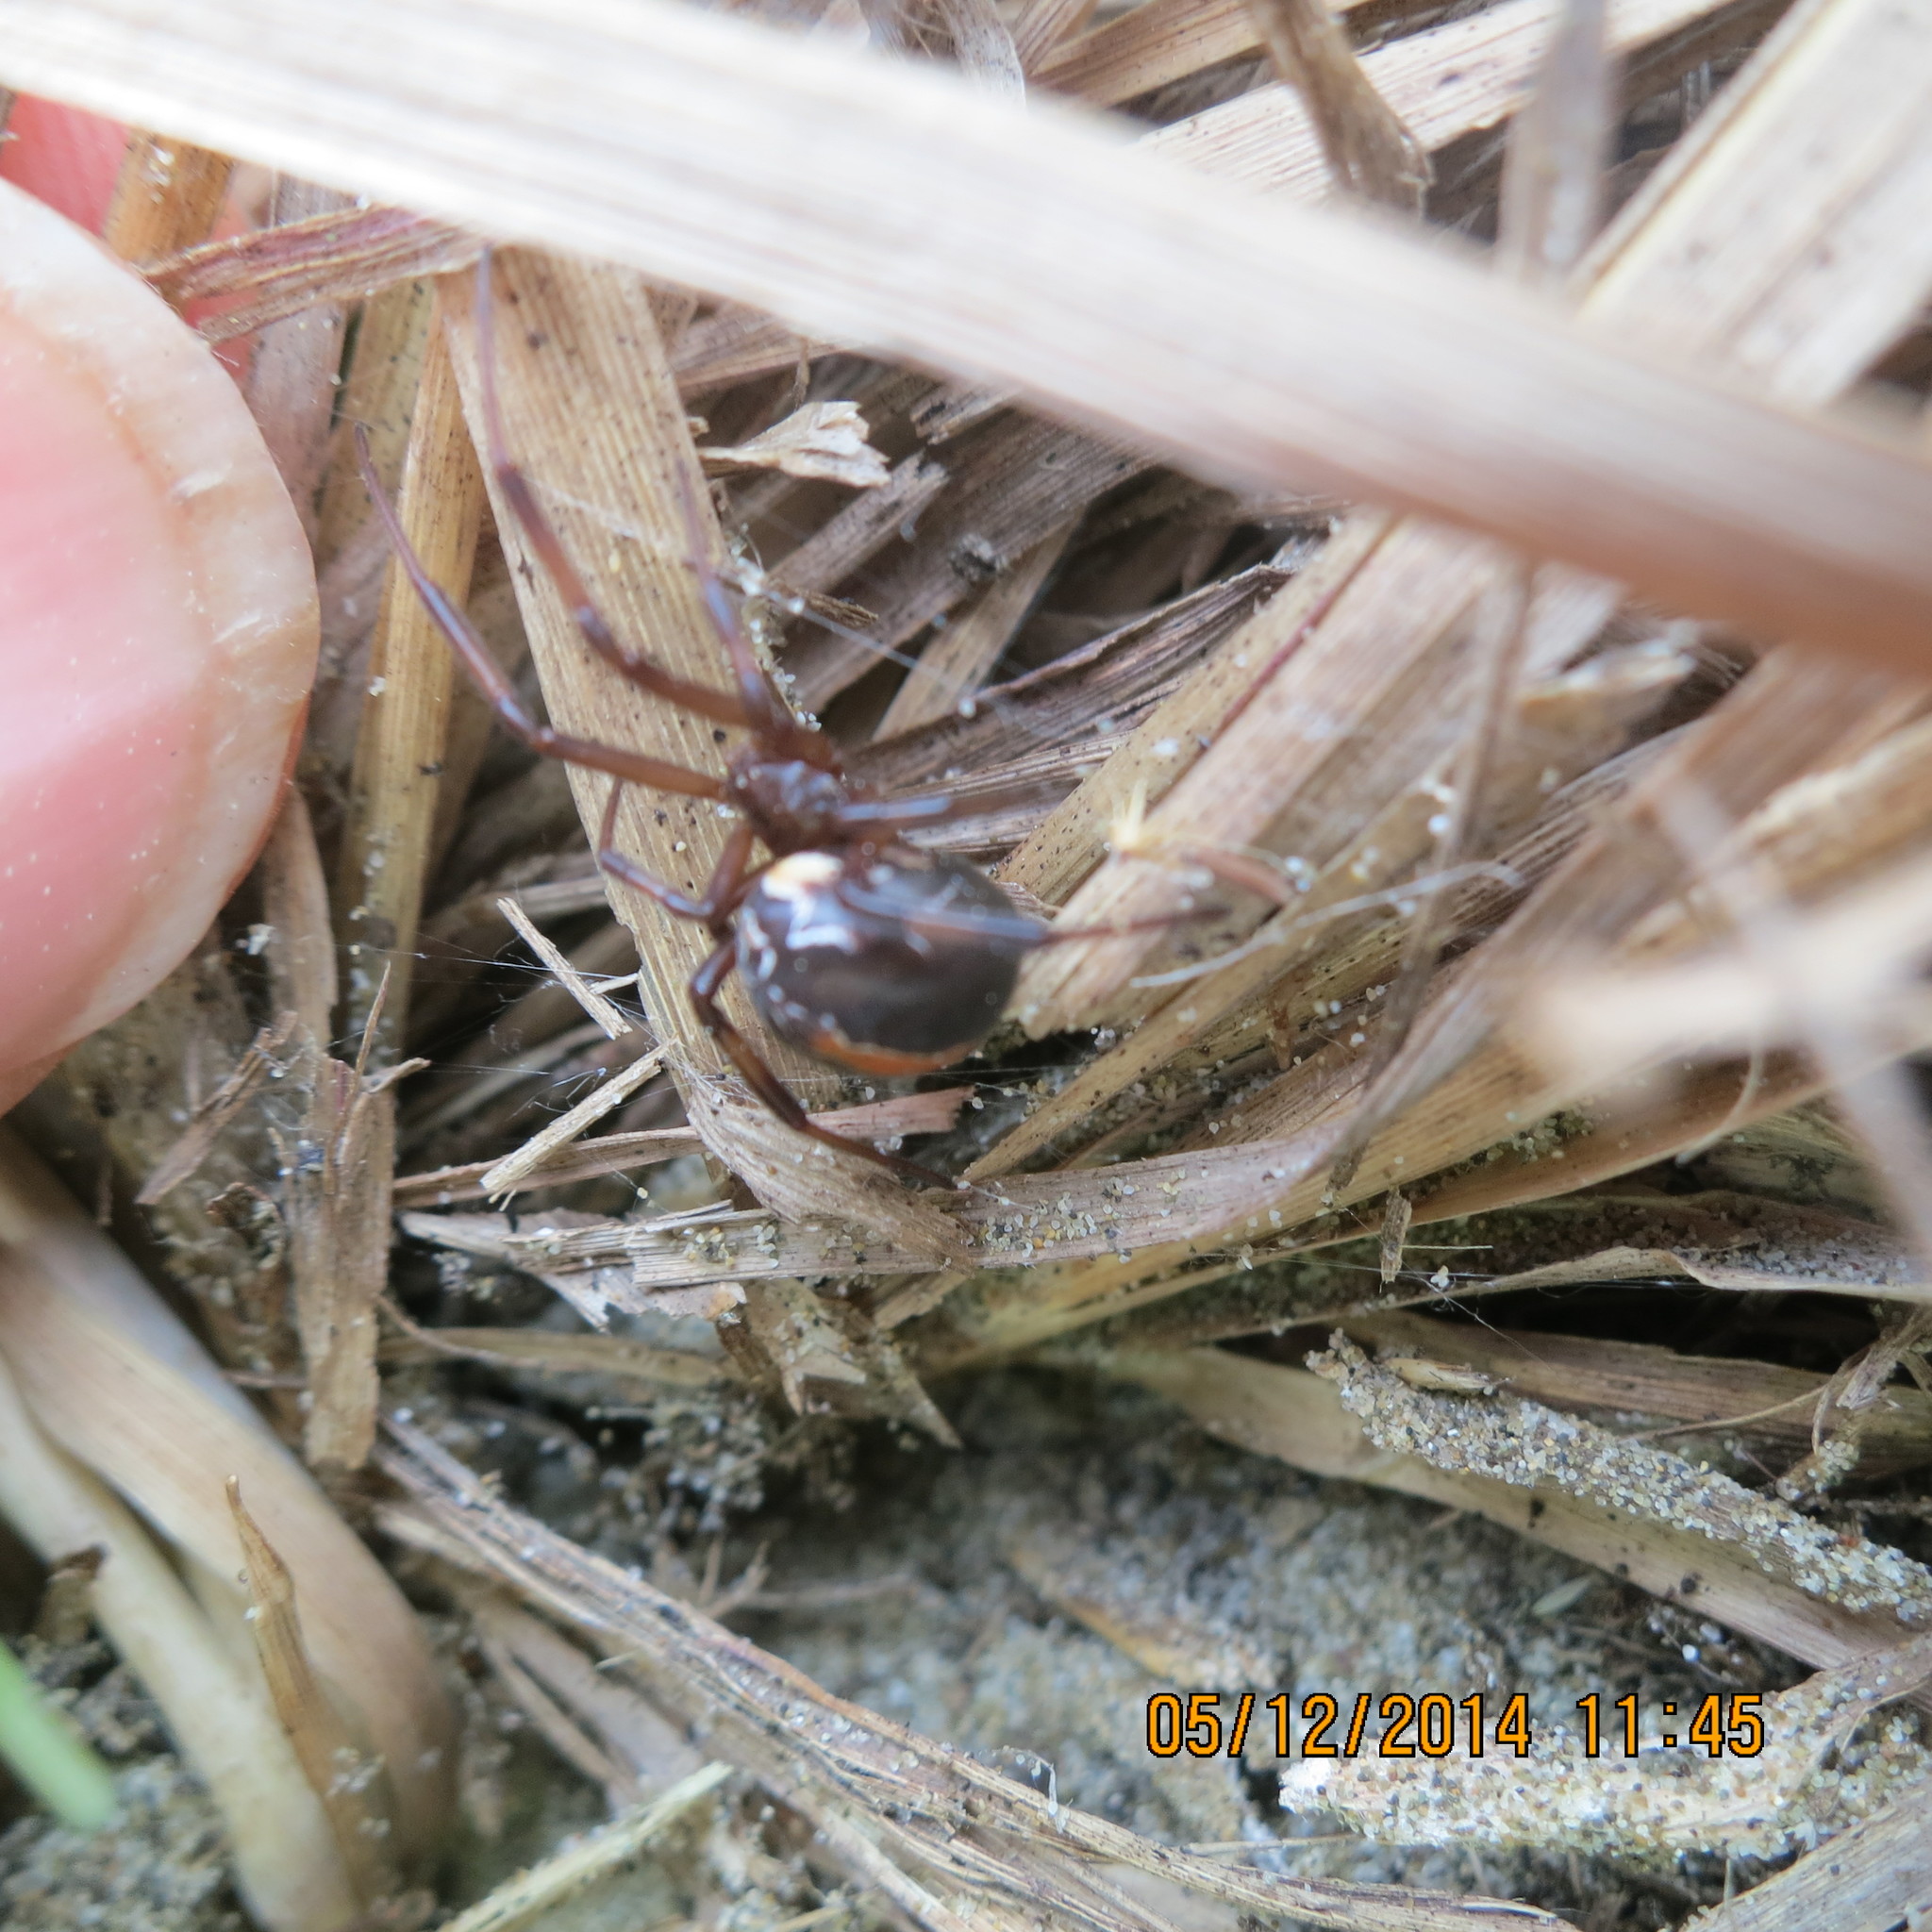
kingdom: Animalia
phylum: Arthropoda
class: Arachnida
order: Araneae
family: Theridiidae
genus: Latrodectus
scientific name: Latrodectus katipo
